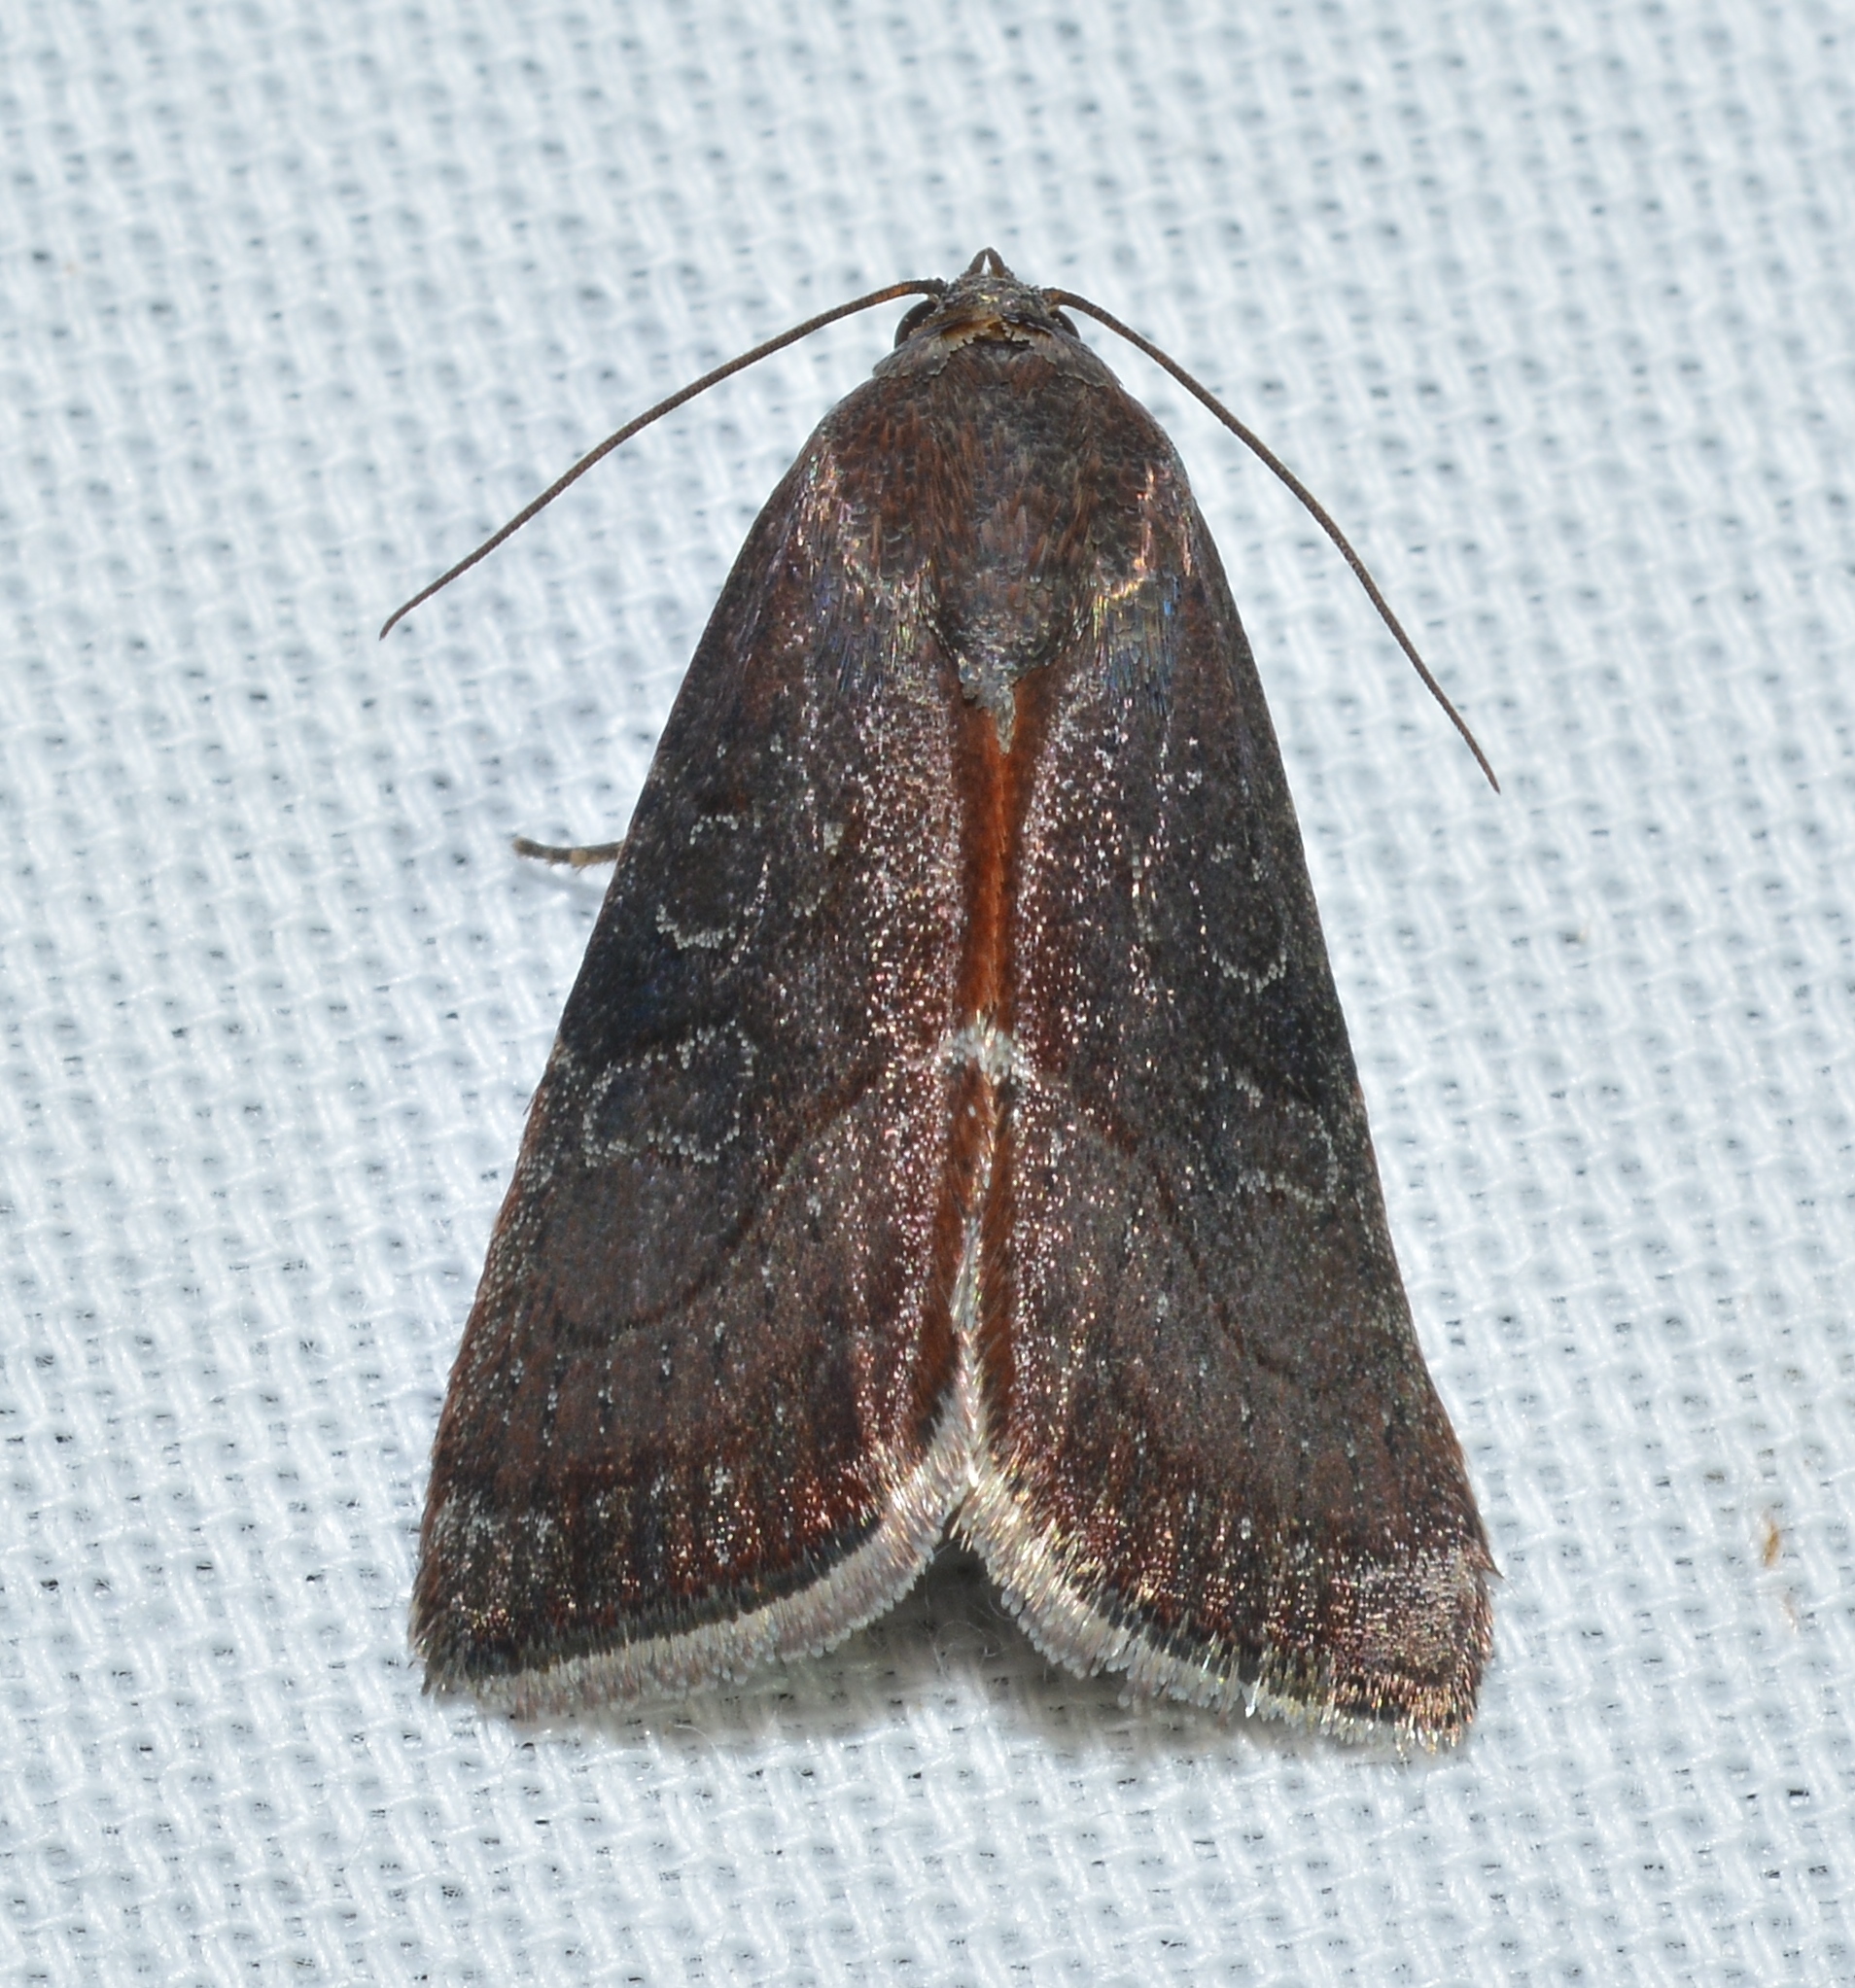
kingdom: Animalia
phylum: Arthropoda
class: Insecta
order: Lepidoptera
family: Noctuidae
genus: Galgula
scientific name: Galgula partita
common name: Wedgeling
